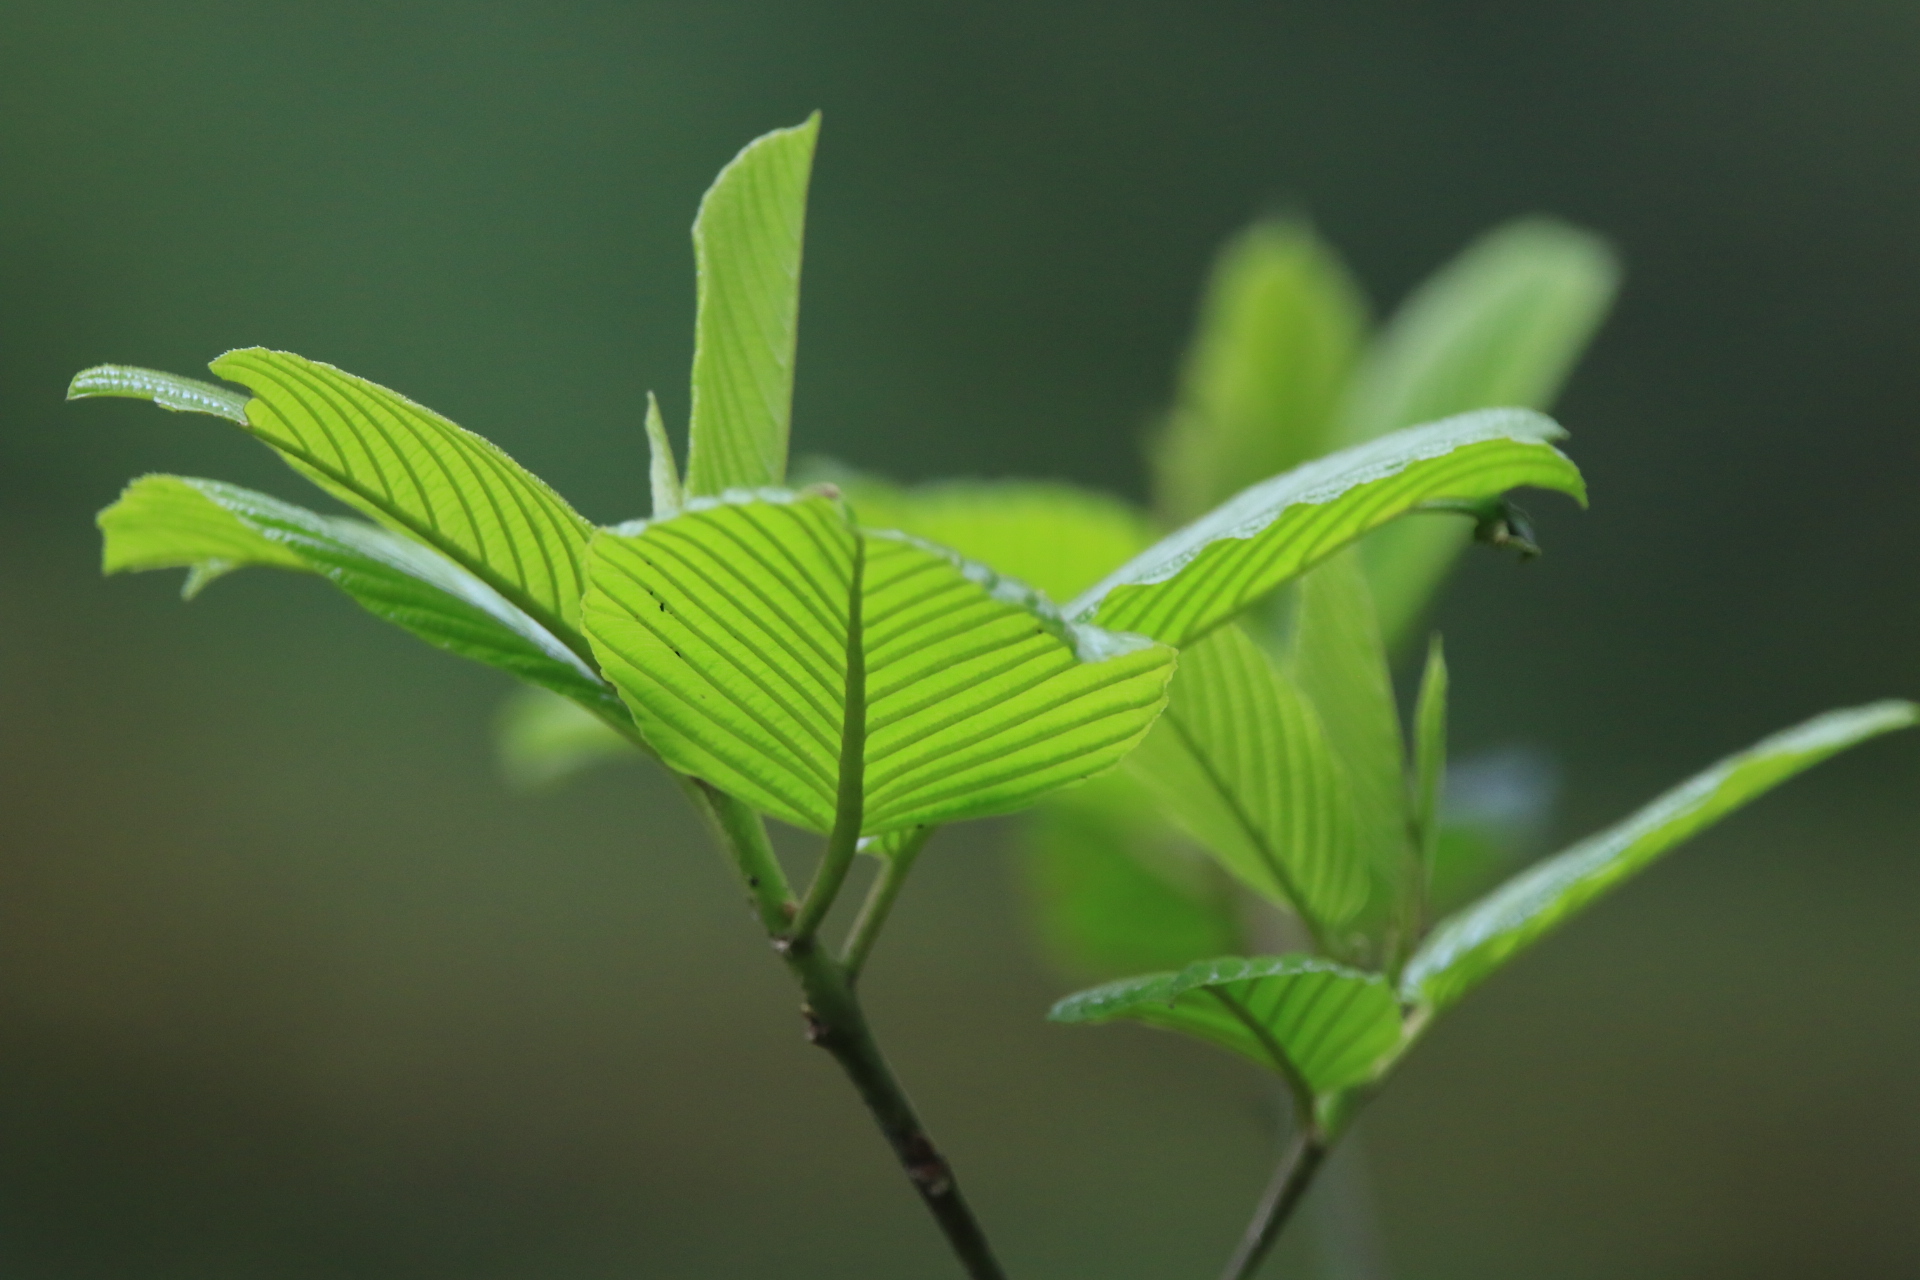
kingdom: Plantae
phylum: Tracheophyta
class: Magnoliopsida
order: Rosales
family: Rhamnaceae
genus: Frangula
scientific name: Frangula purshiana
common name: Cascara buckthorn
